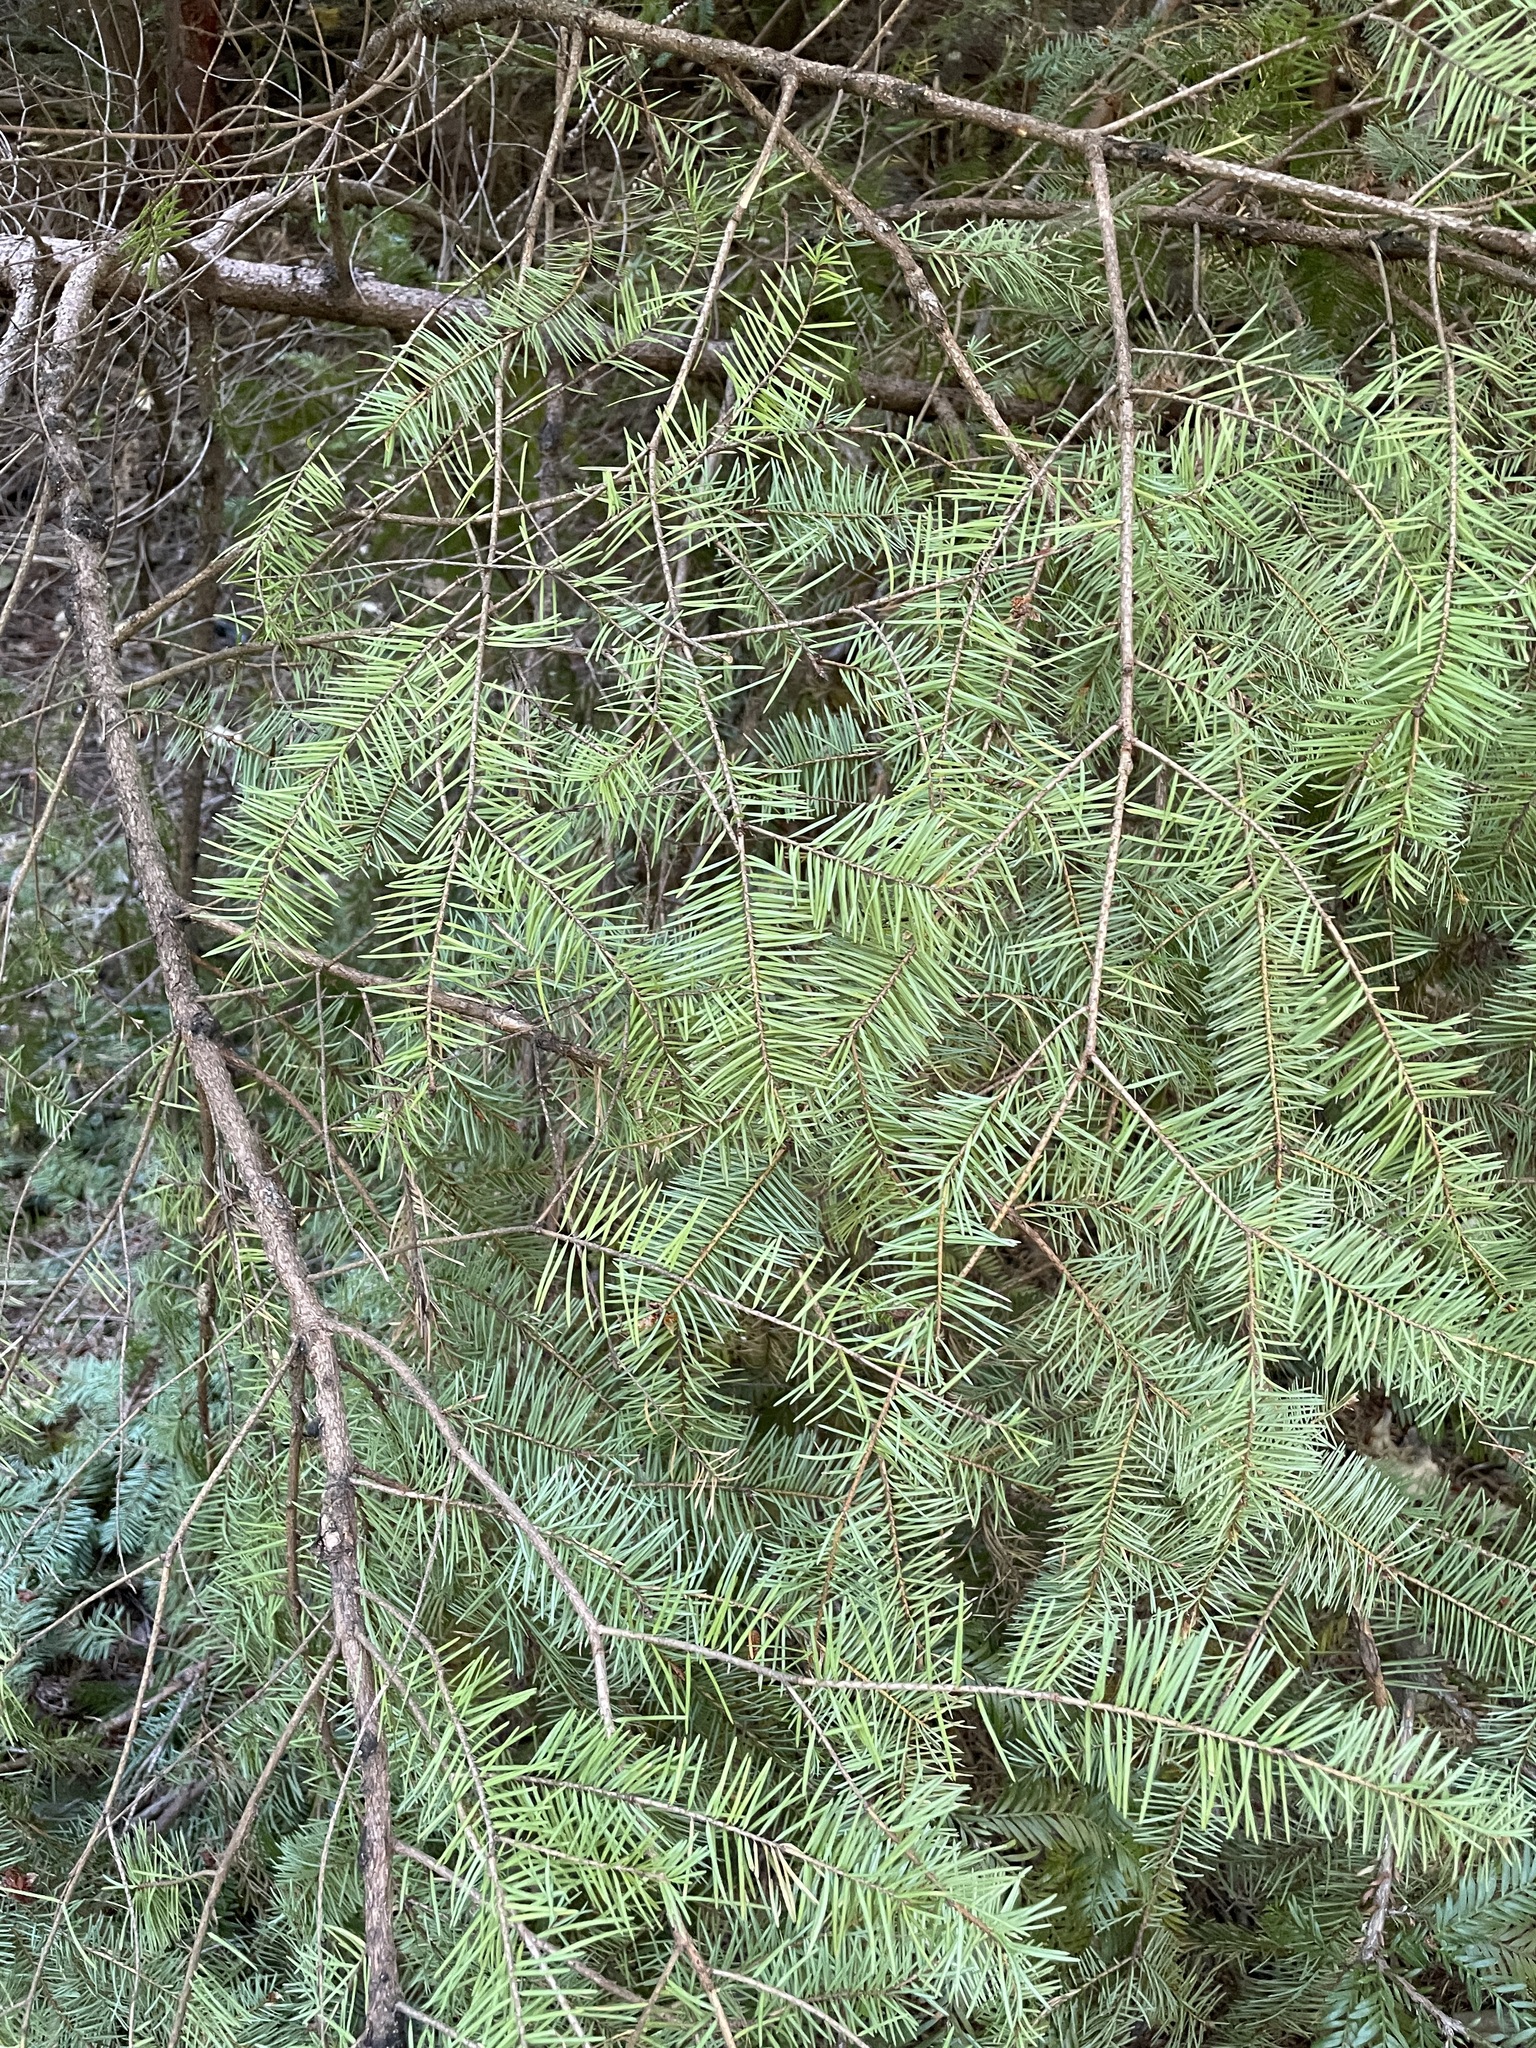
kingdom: Plantae
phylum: Tracheophyta
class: Pinopsida
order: Pinales
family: Pinaceae
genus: Pseudotsuga
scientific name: Pseudotsuga menziesii
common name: Douglas fir
